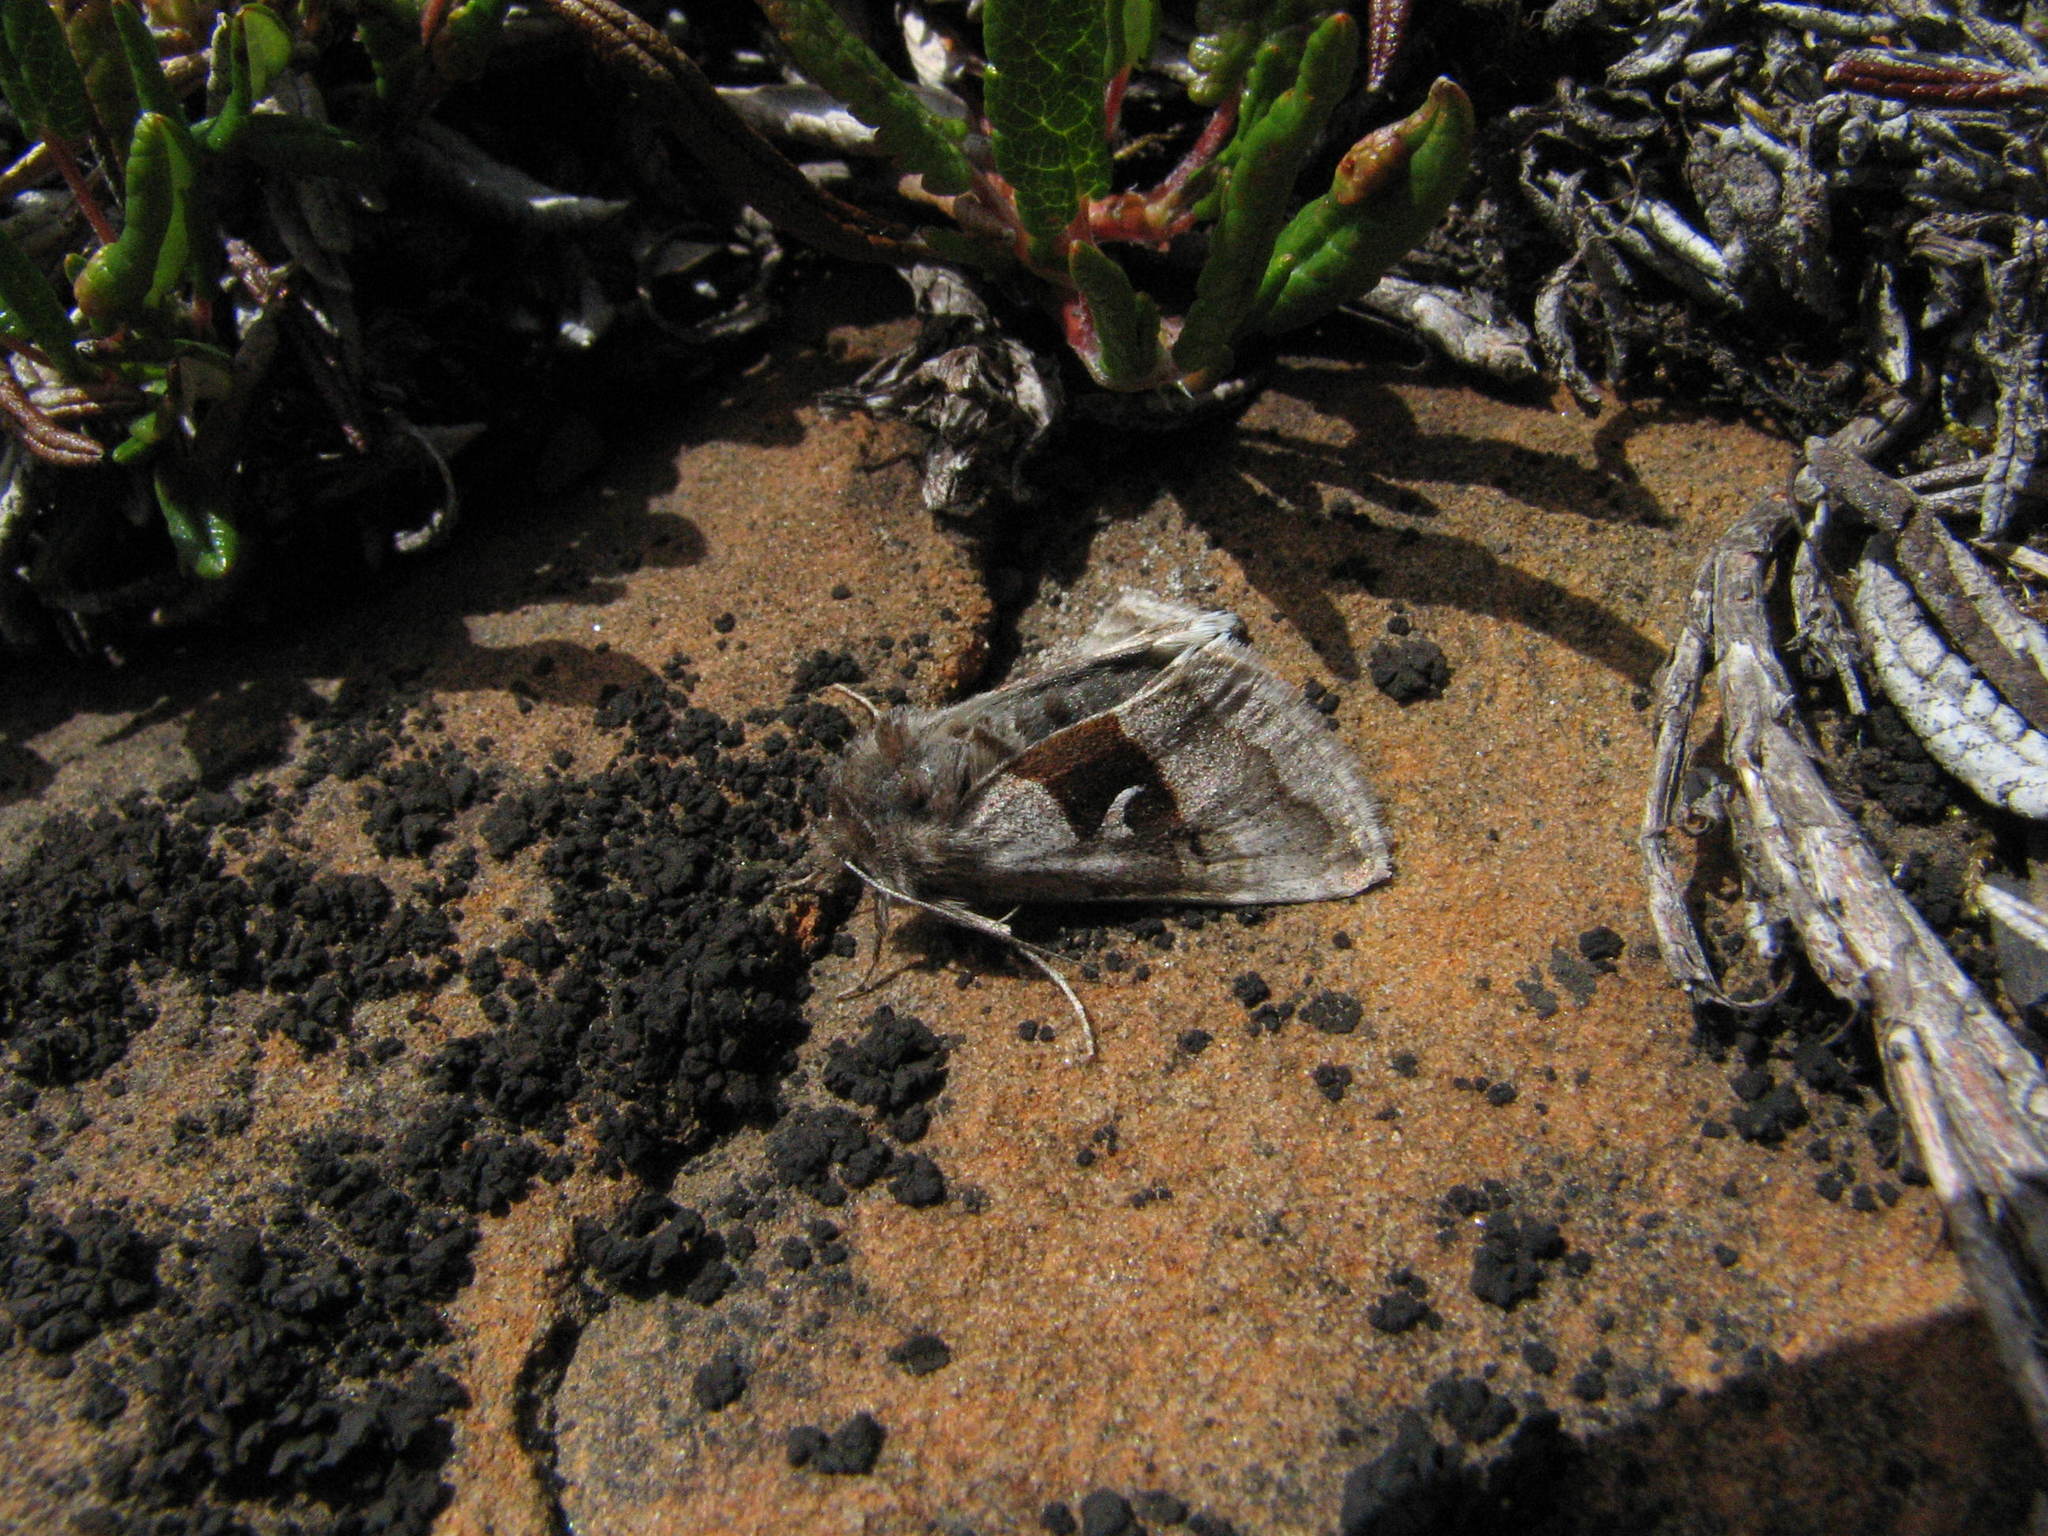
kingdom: Animalia
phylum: Arthropoda
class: Insecta
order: Lepidoptera
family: Noctuidae
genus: Syngrapha
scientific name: Syngrapha parilis
